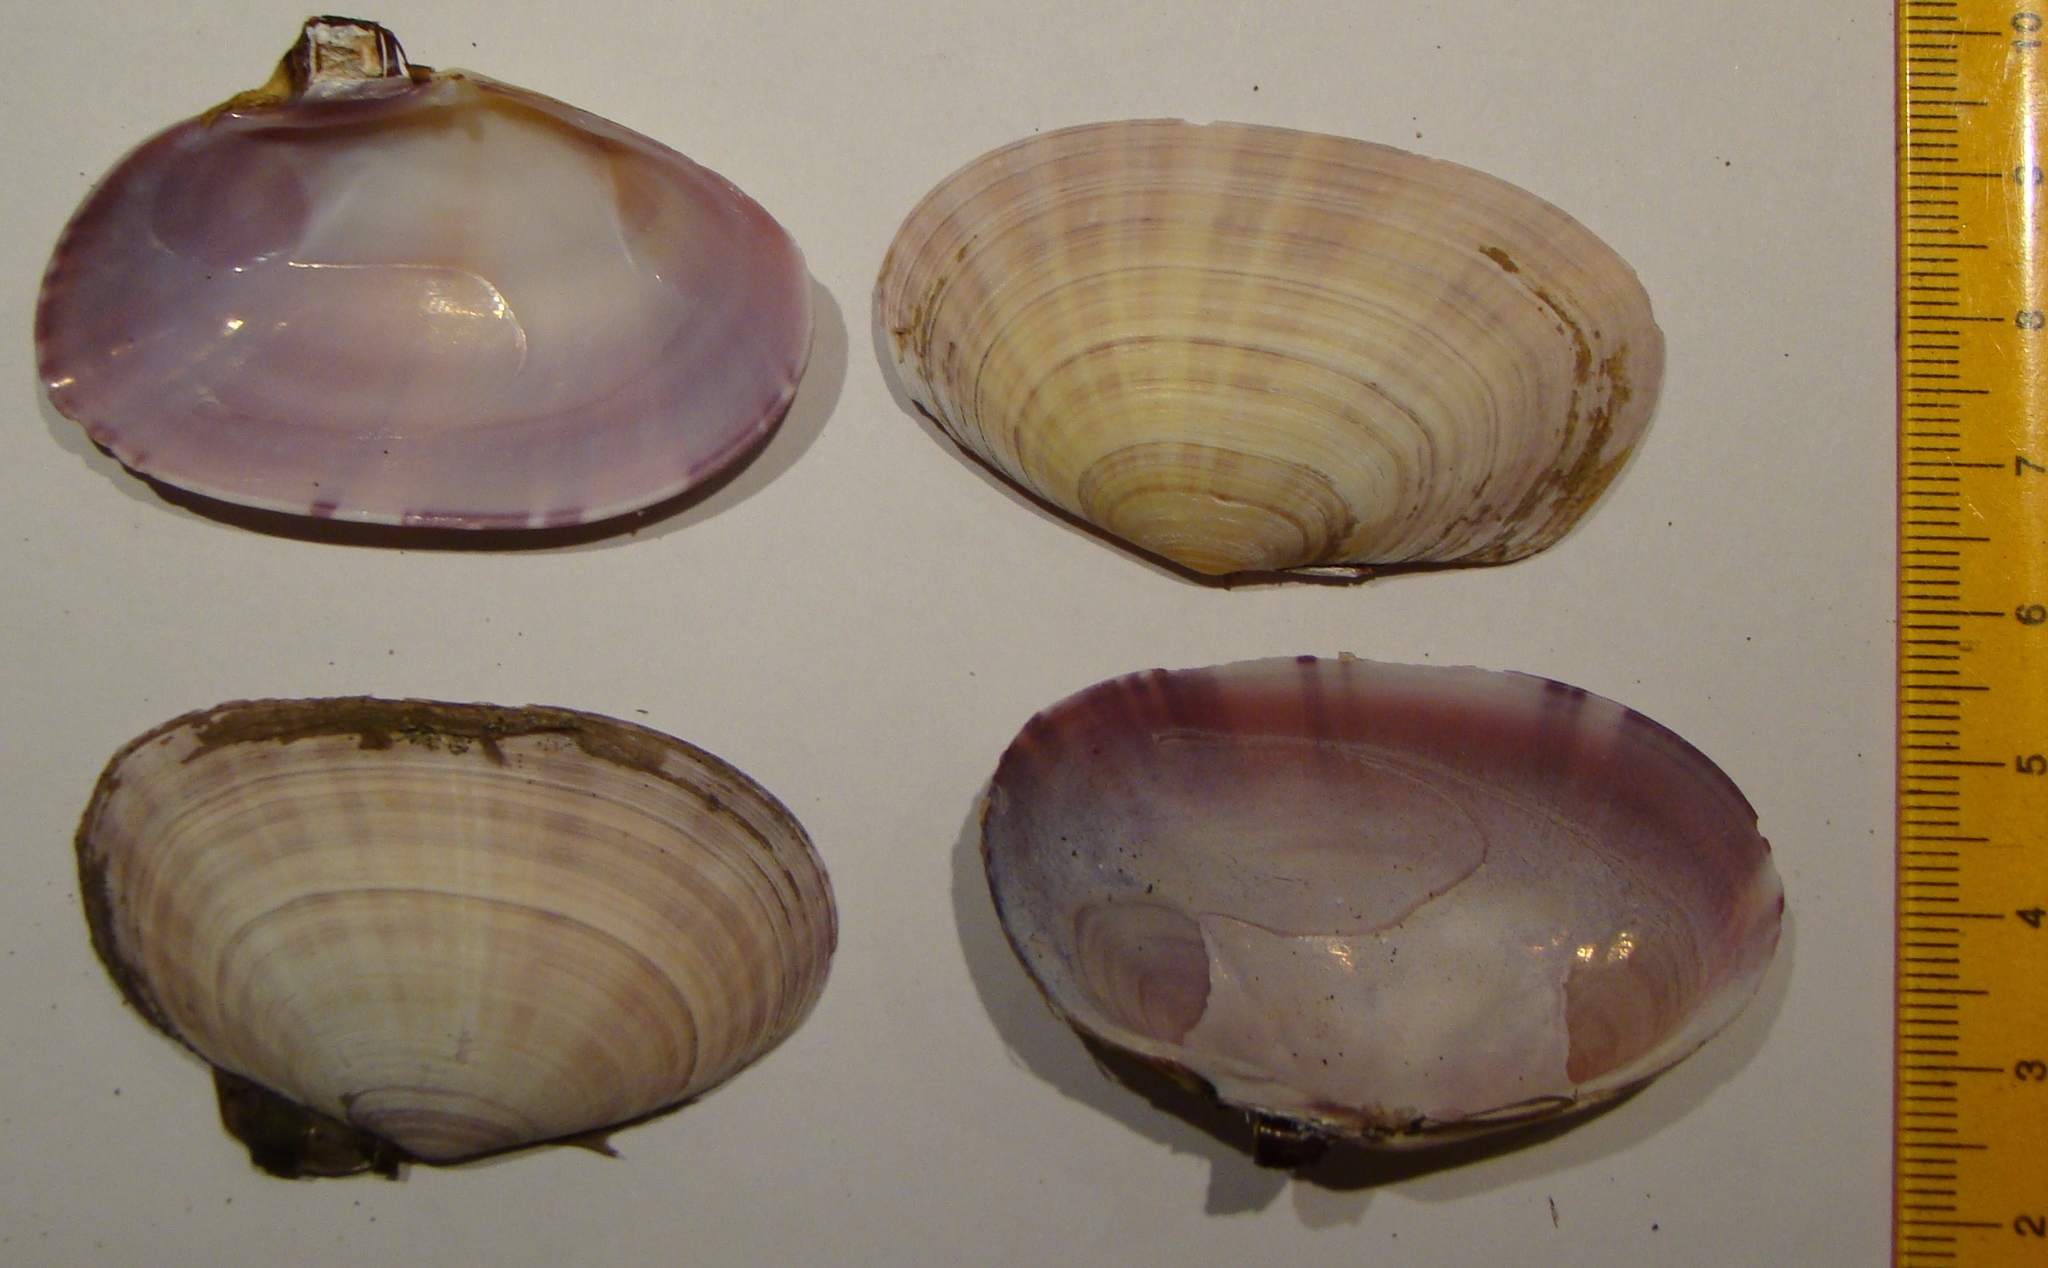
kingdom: Animalia
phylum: Mollusca
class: Bivalvia
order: Cardiida
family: Psammobiidae
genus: Gari
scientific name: Gari stangeri
